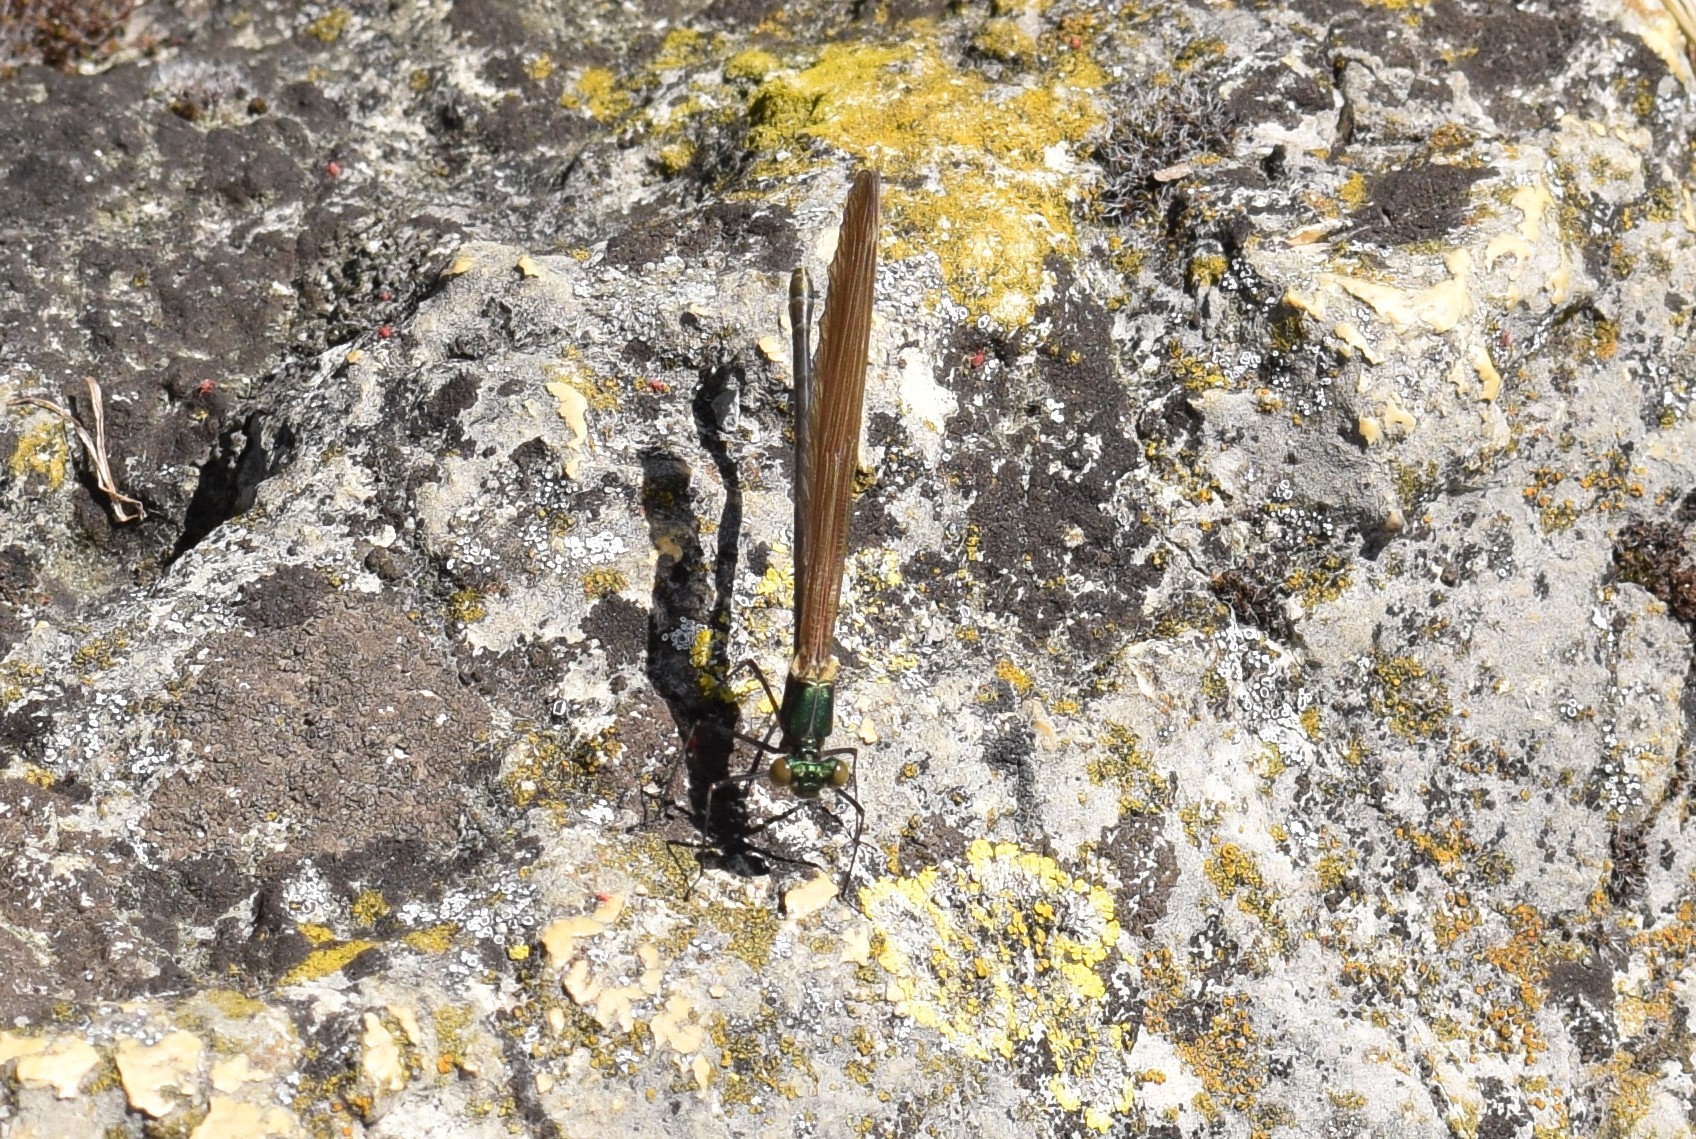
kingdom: Animalia
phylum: Arthropoda
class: Insecta
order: Odonata
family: Calopterygidae
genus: Calopteryx
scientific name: Calopteryx virgo
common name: Beautiful demoiselle
